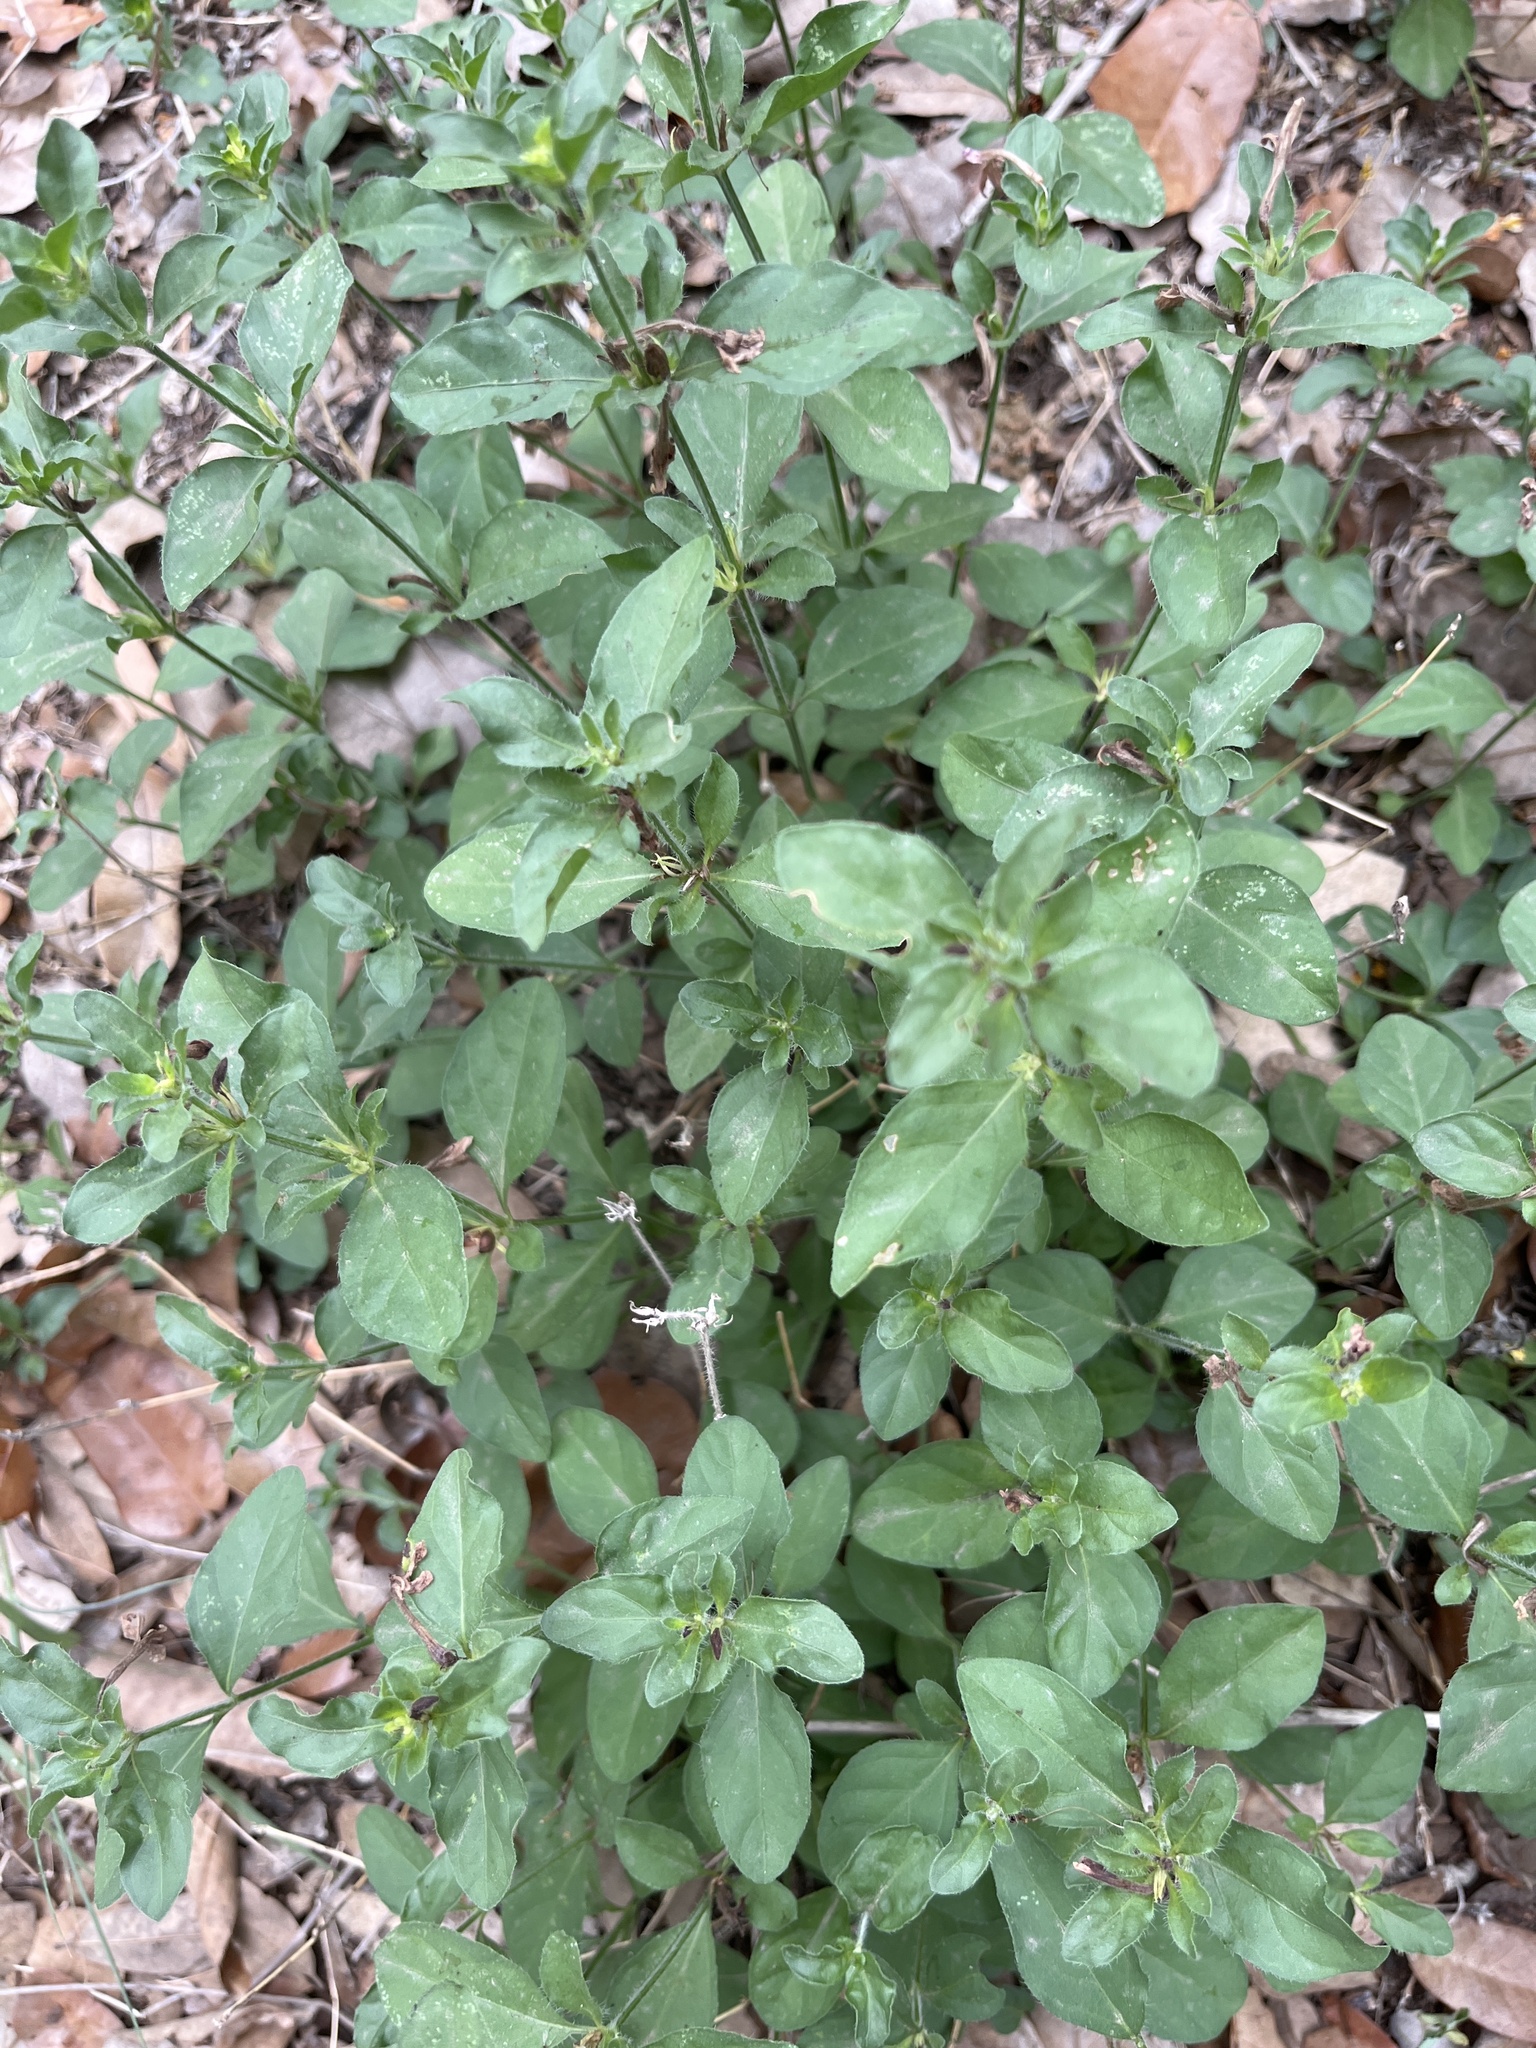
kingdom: Plantae
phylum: Tracheophyta
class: Magnoliopsida
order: Lamiales
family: Acanthaceae
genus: Justicia
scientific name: Justicia pilosella
